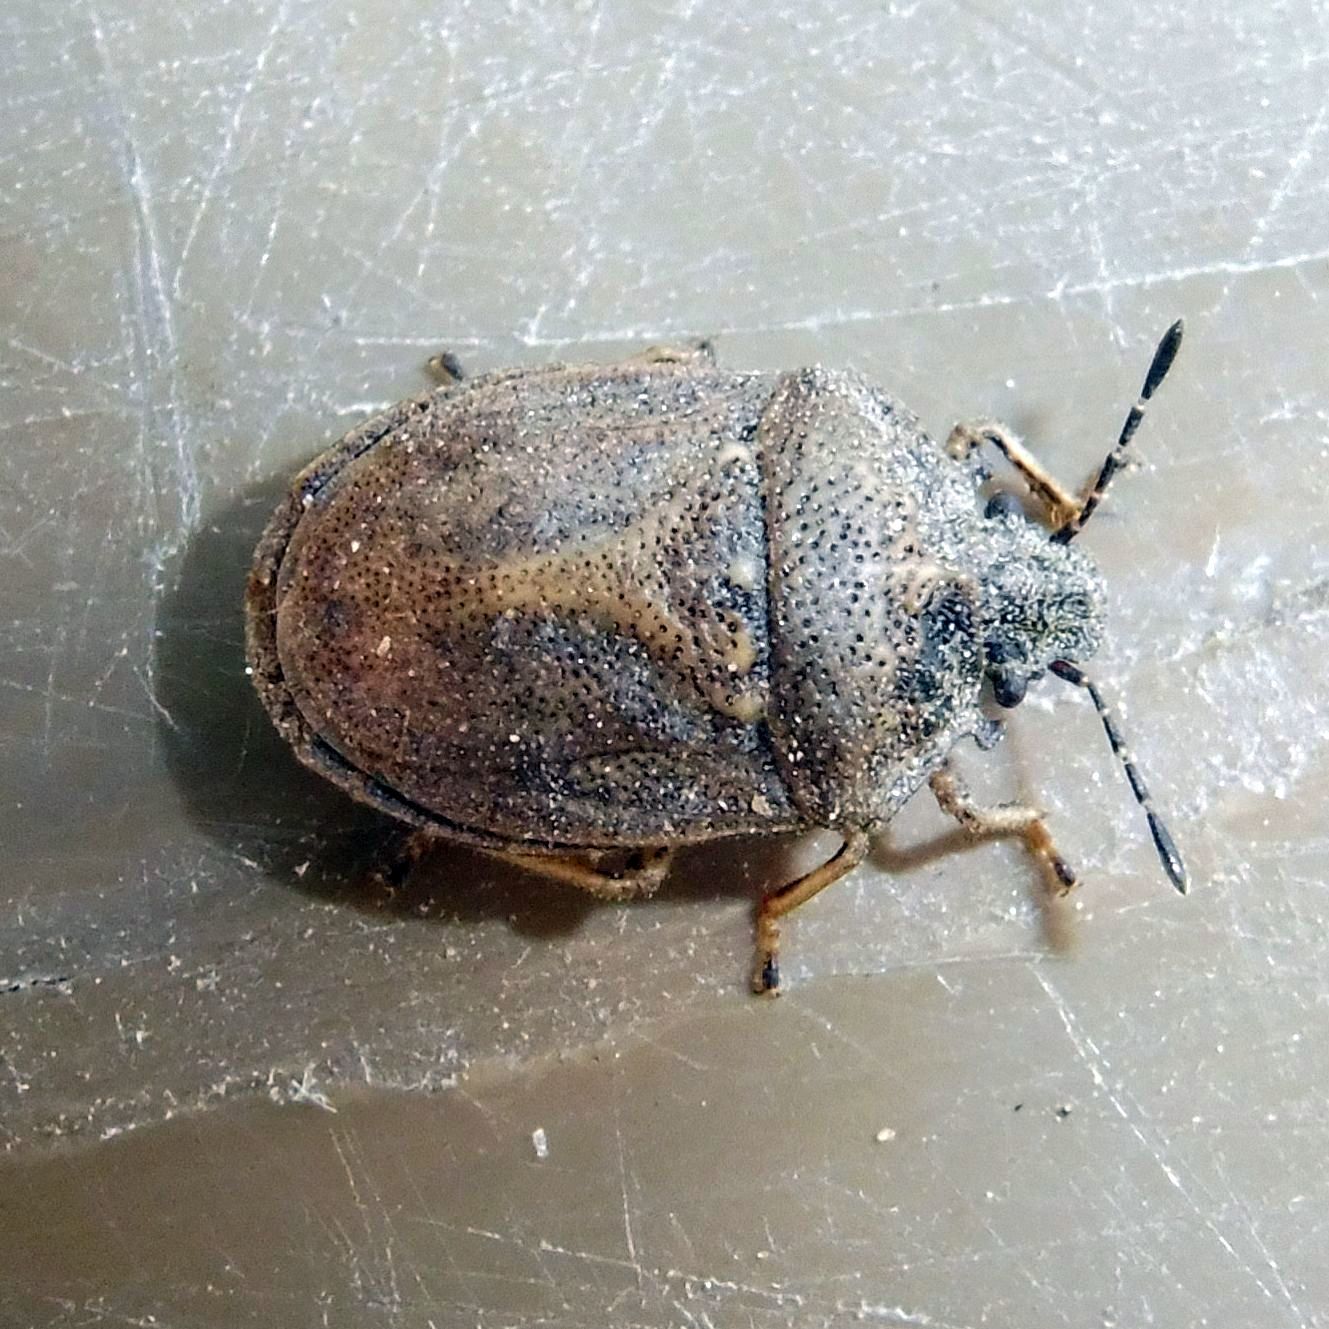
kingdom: Animalia
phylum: Arthropoda
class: Insecta
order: Hemiptera
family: Pentatomidae
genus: Podops
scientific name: Podops inunctus
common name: Turtle bug
